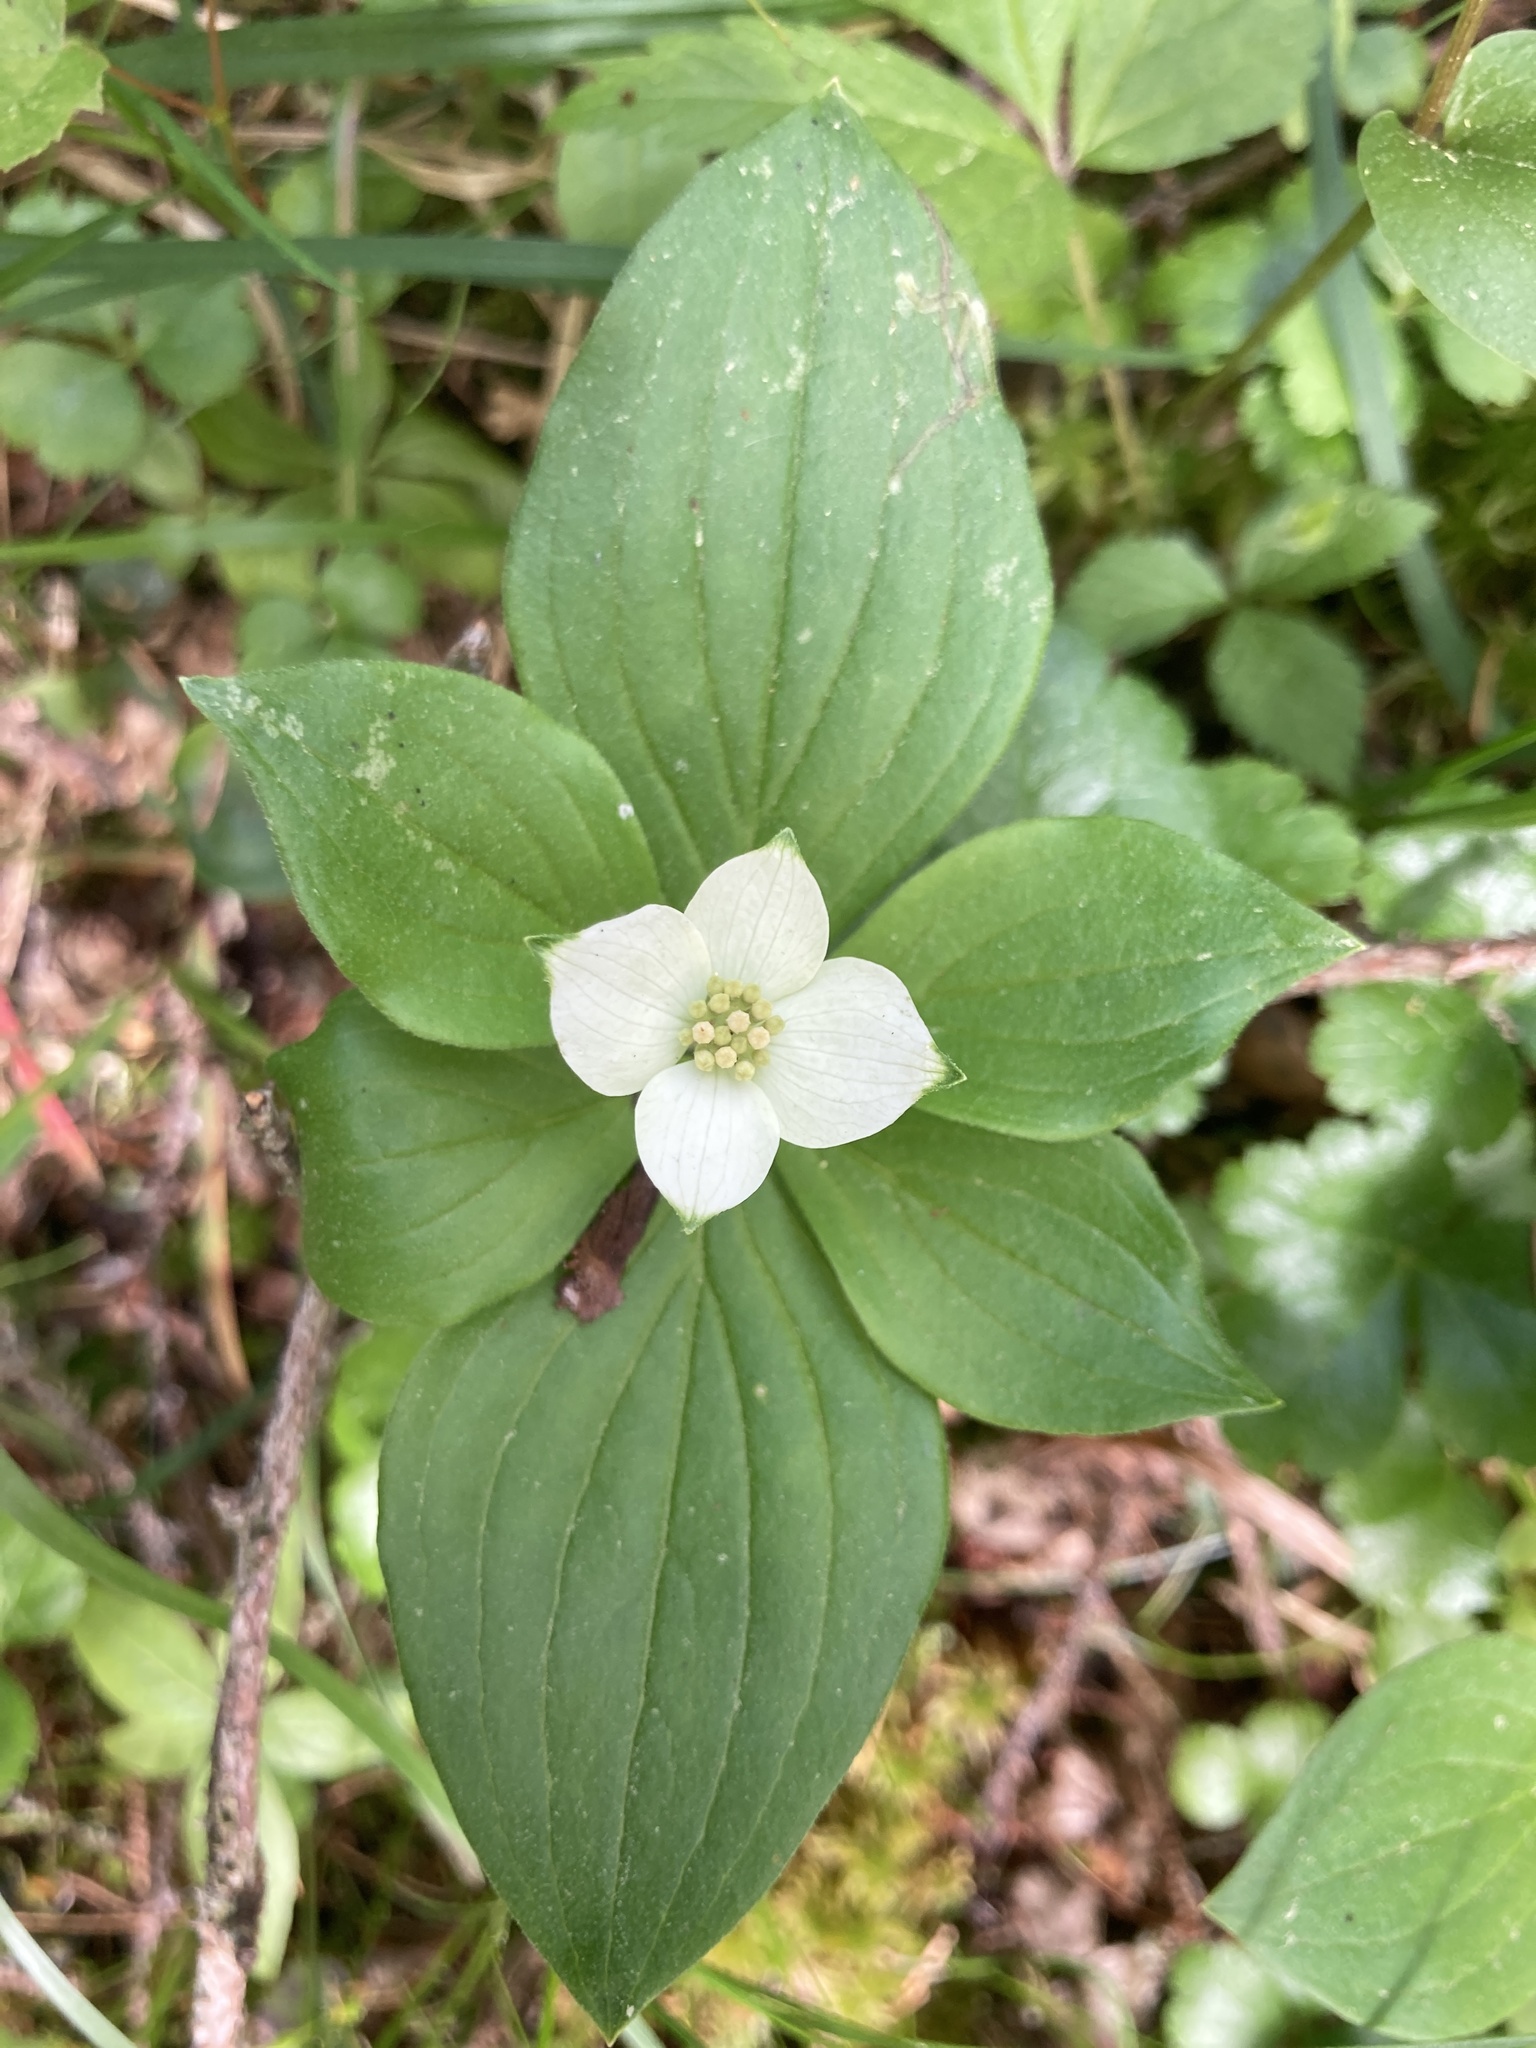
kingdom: Plantae
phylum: Tracheophyta
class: Magnoliopsida
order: Cornales
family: Cornaceae
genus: Cornus
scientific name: Cornus canadensis
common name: Creeping dogwood
